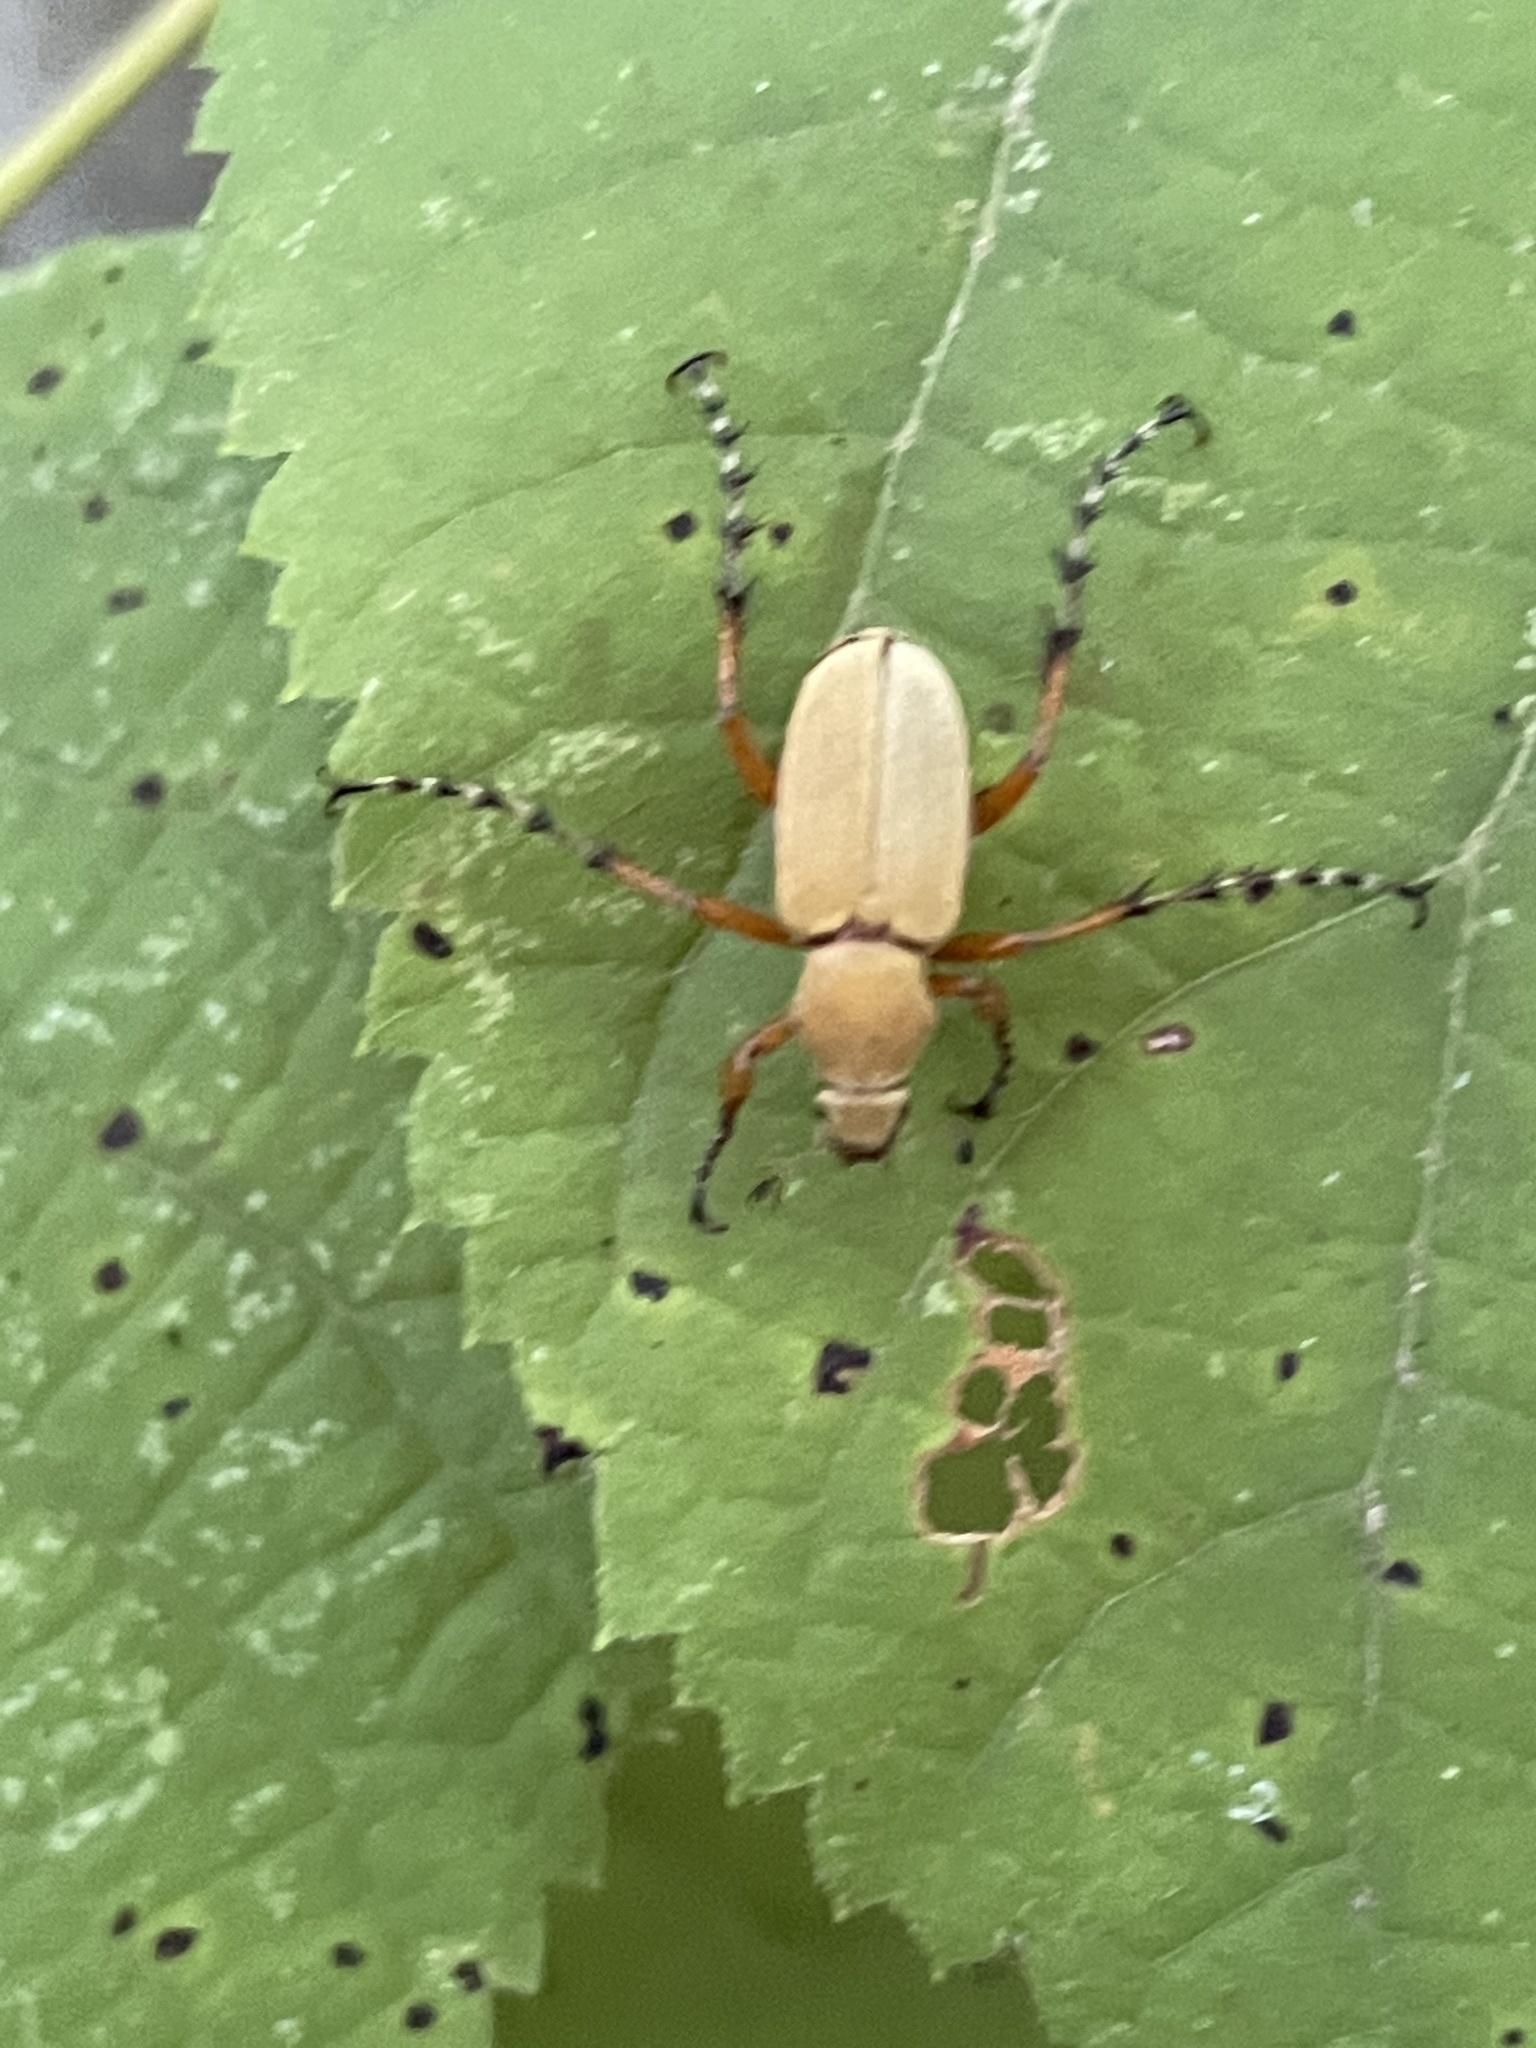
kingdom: Animalia
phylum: Arthropoda
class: Insecta
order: Coleoptera
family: Scarabaeidae
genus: Macrodactylus
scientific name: Macrodactylus subspinosus
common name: American rose chafer
